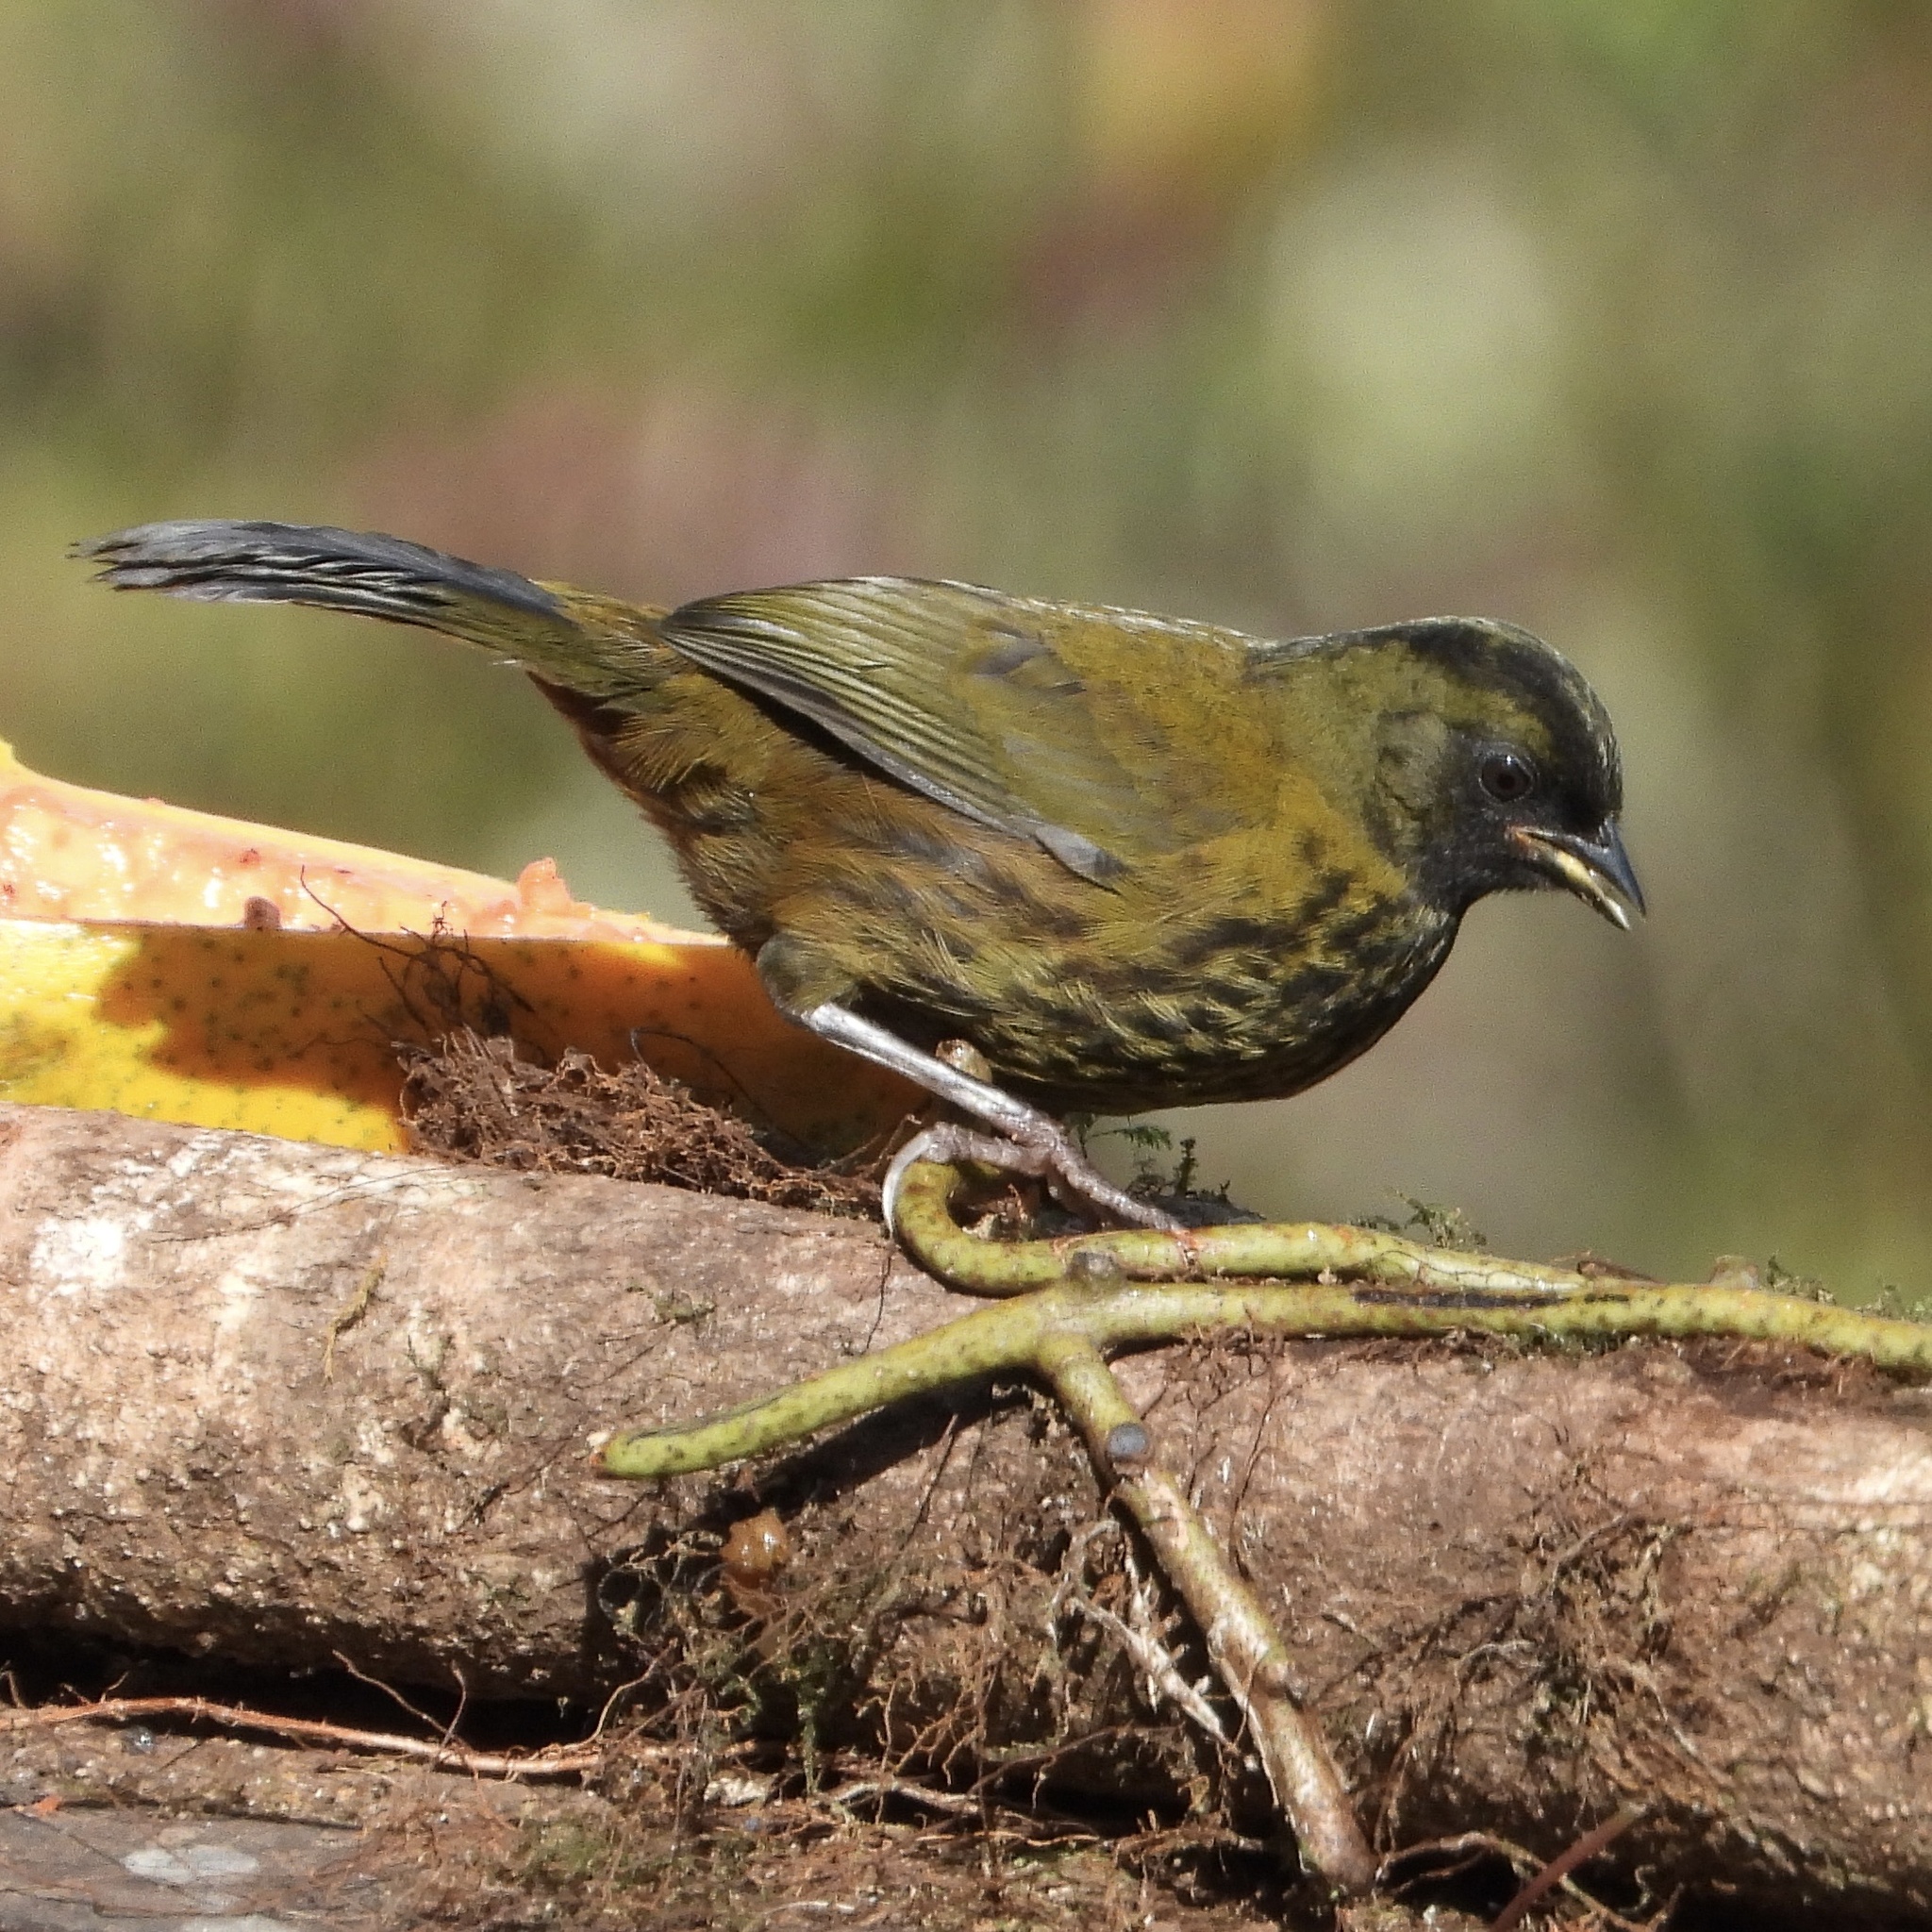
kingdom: Animalia
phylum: Chordata
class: Aves
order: Passeriformes
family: Passerellidae
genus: Pezopetes
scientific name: Pezopetes capitalis
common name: Large-footed finch
